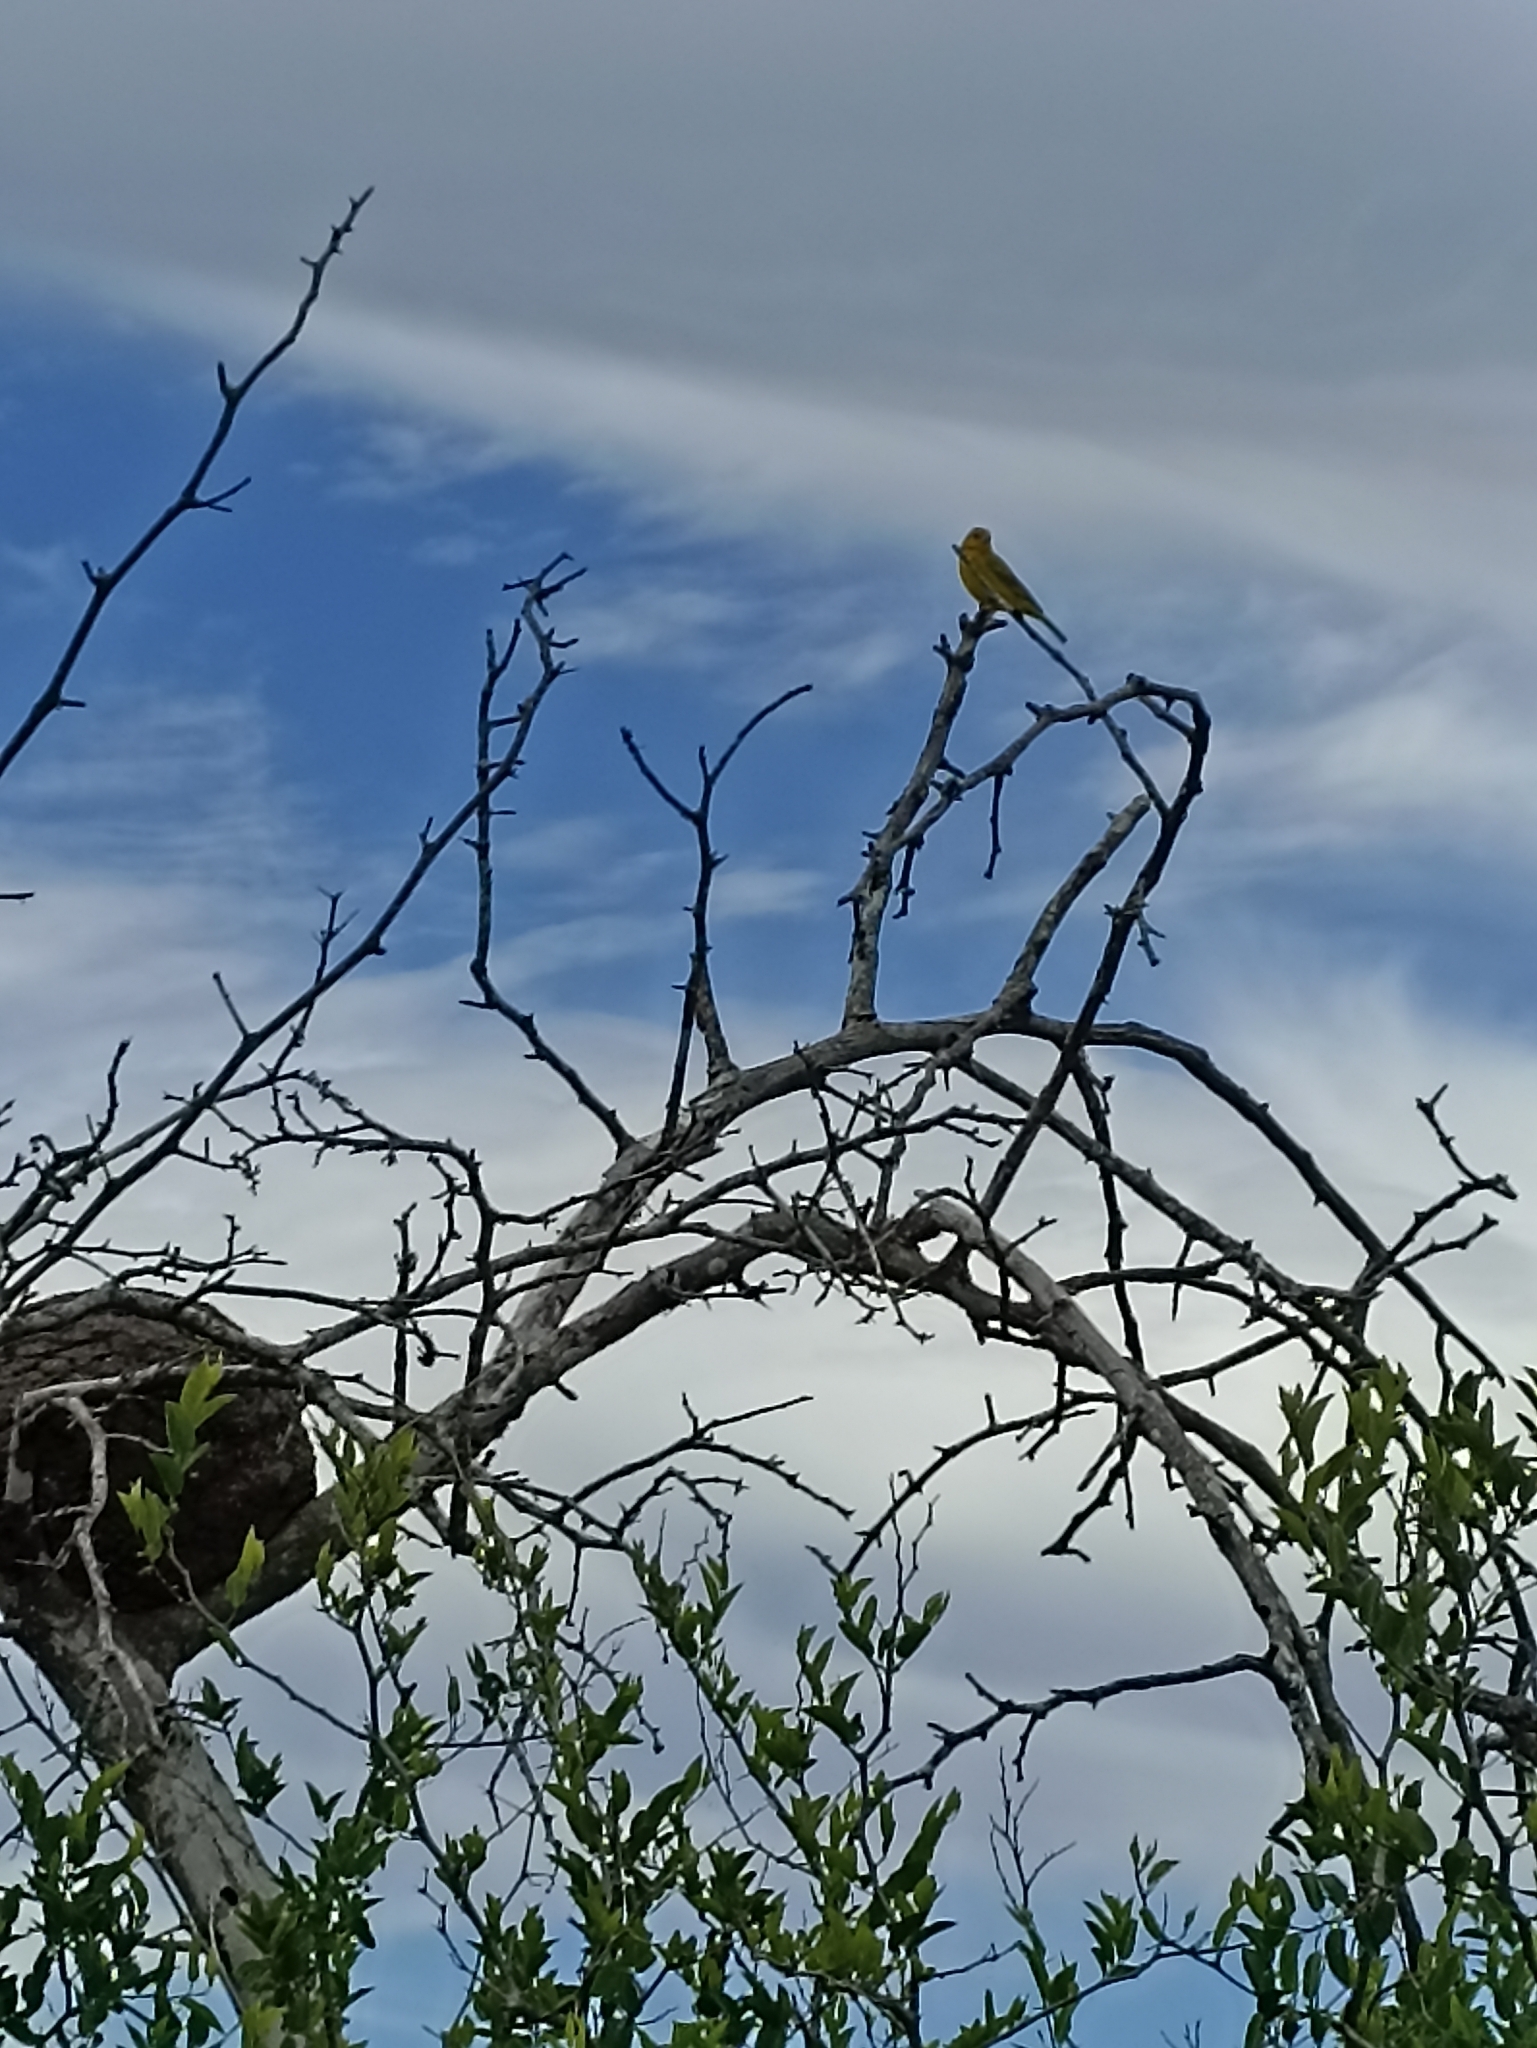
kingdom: Animalia
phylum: Chordata
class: Aves
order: Passeriformes
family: Thraupidae
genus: Sicalis
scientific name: Sicalis flaveola
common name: Saffron finch
